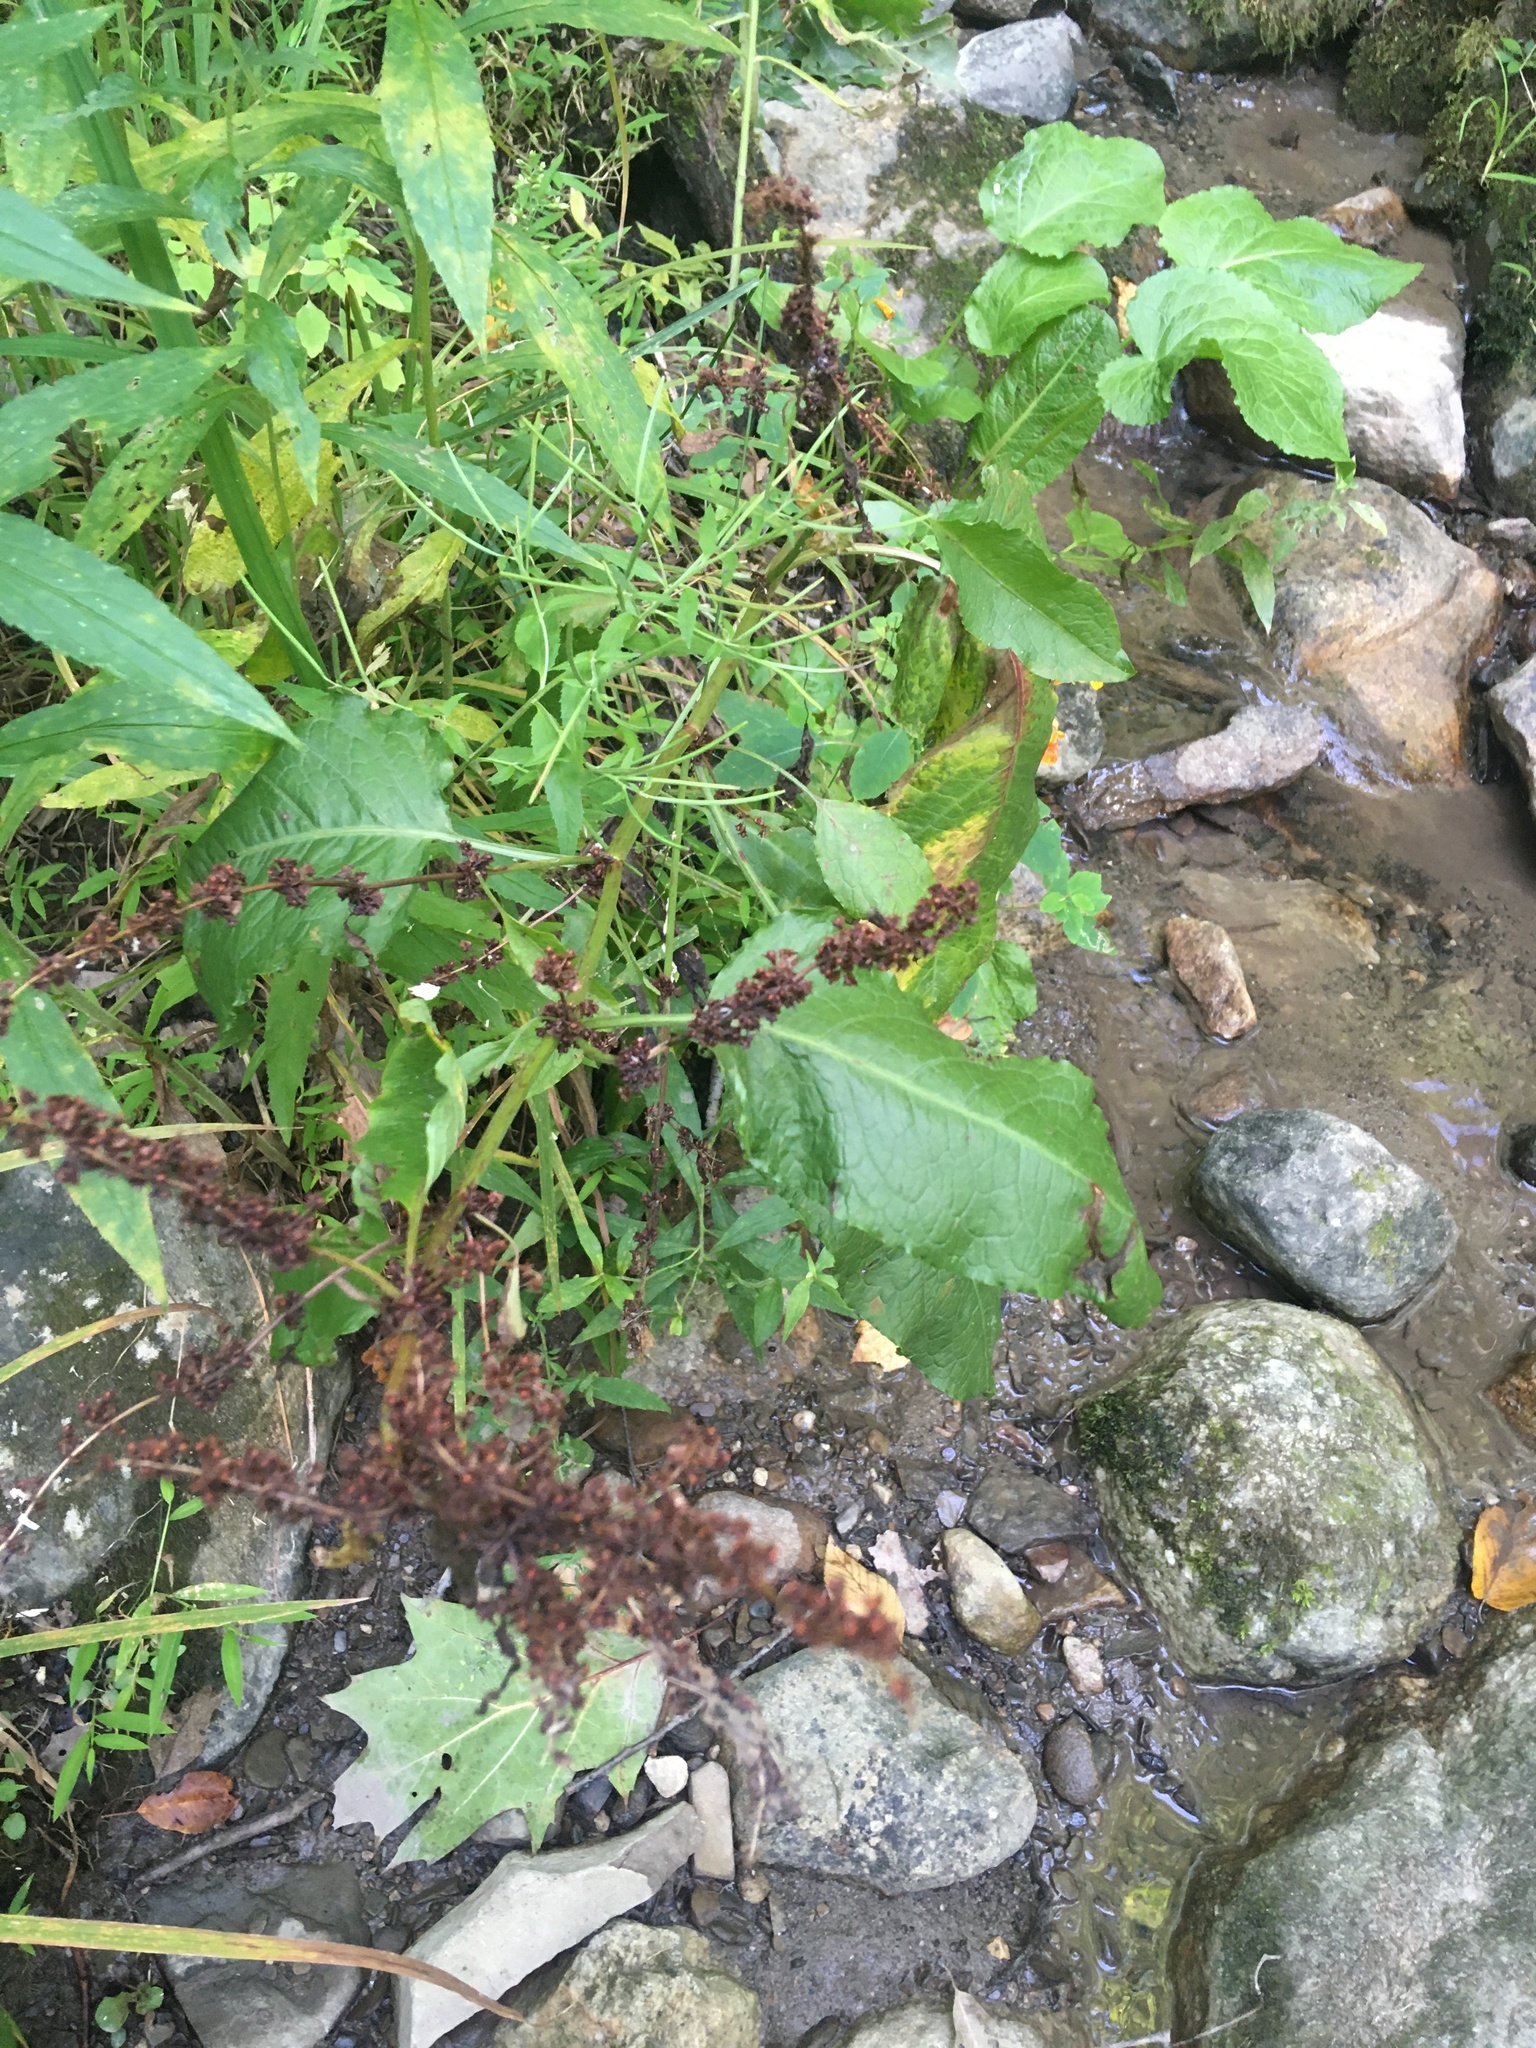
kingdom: Plantae
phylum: Tracheophyta
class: Magnoliopsida
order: Caryophyllales
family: Polygonaceae
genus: Rumex
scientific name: Rumex obtusifolius
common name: Bitter dock
